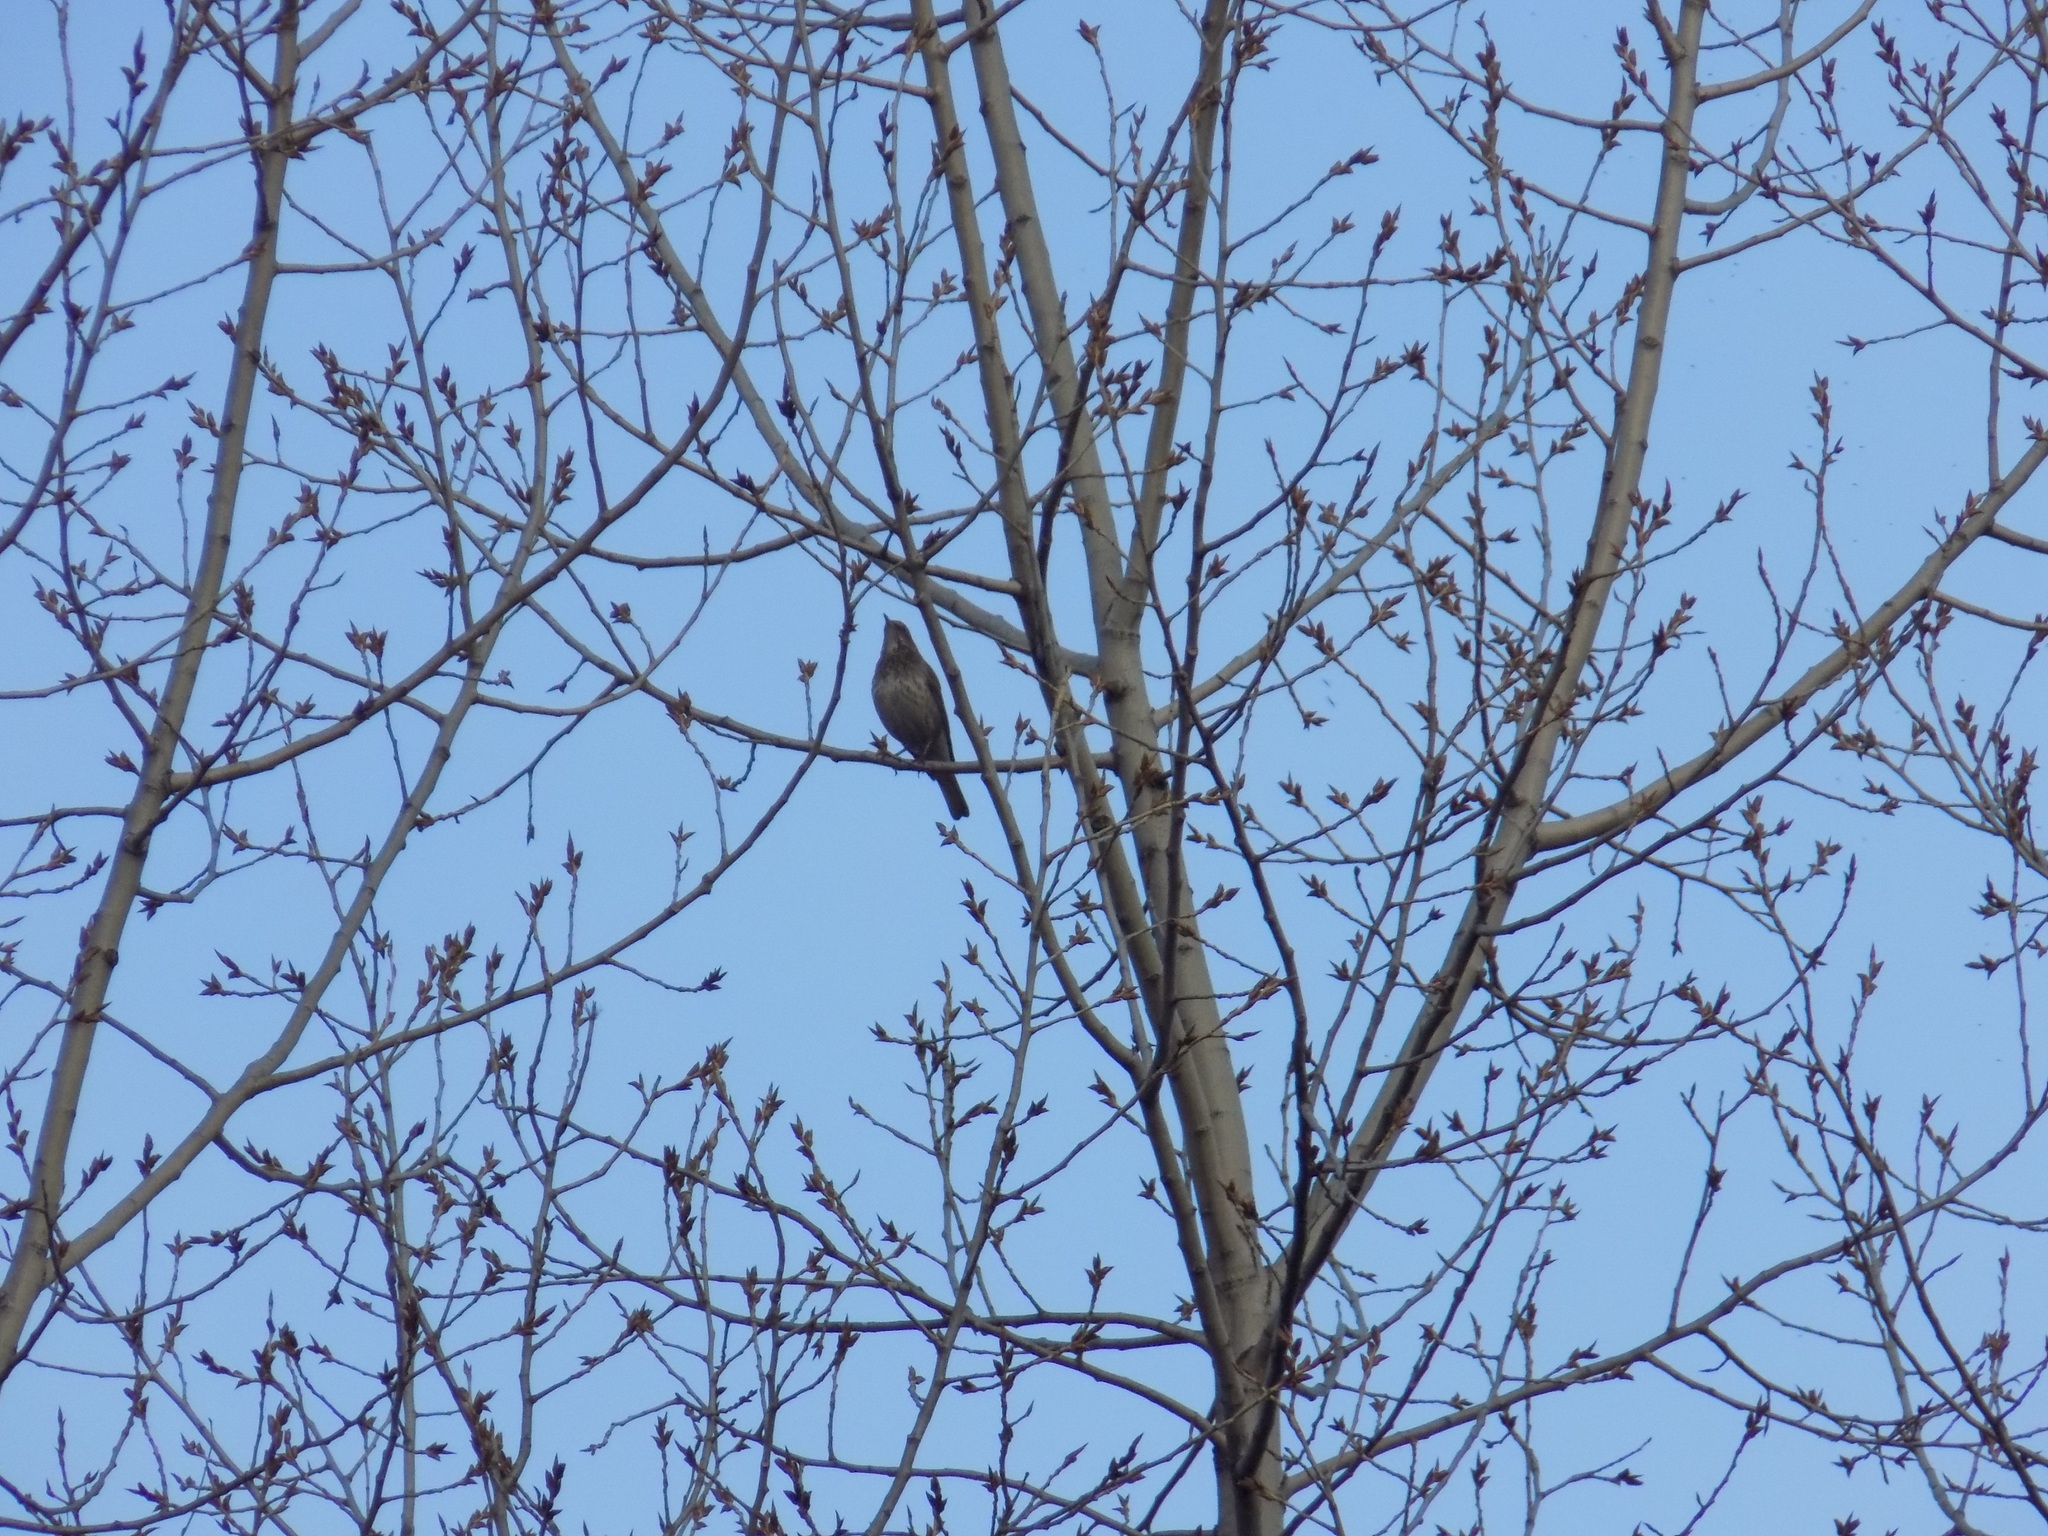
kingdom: Animalia
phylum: Chordata
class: Aves
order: Passeriformes
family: Turdidae
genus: Turdus
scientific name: Turdus pilaris
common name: Fieldfare
